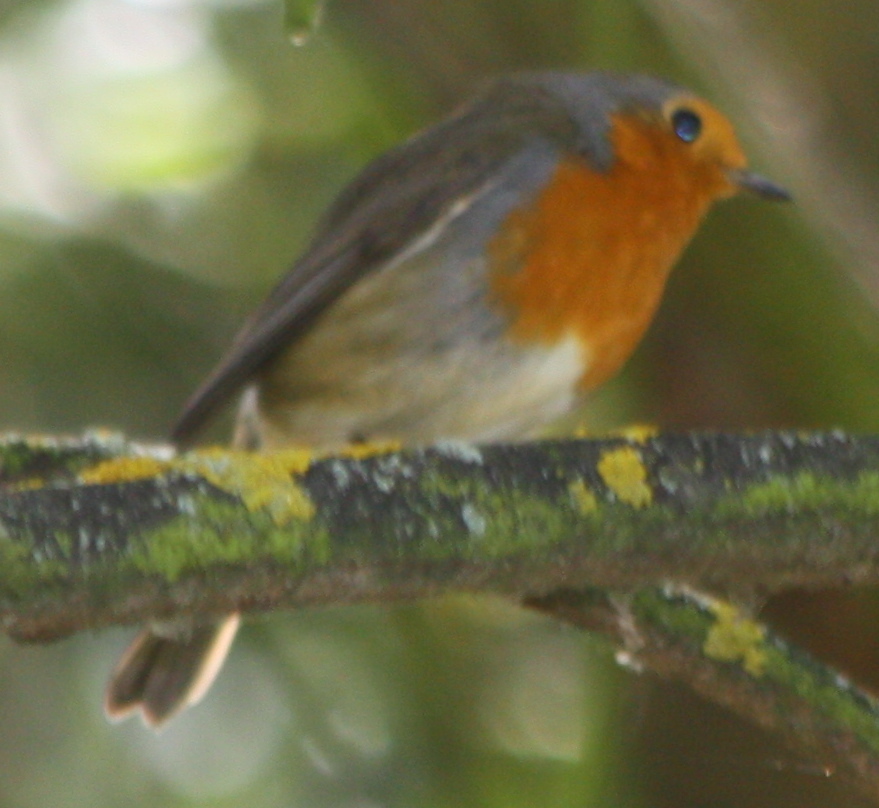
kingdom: Animalia
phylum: Chordata
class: Aves
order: Passeriformes
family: Muscicapidae
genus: Erithacus
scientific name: Erithacus rubecula
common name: European robin
